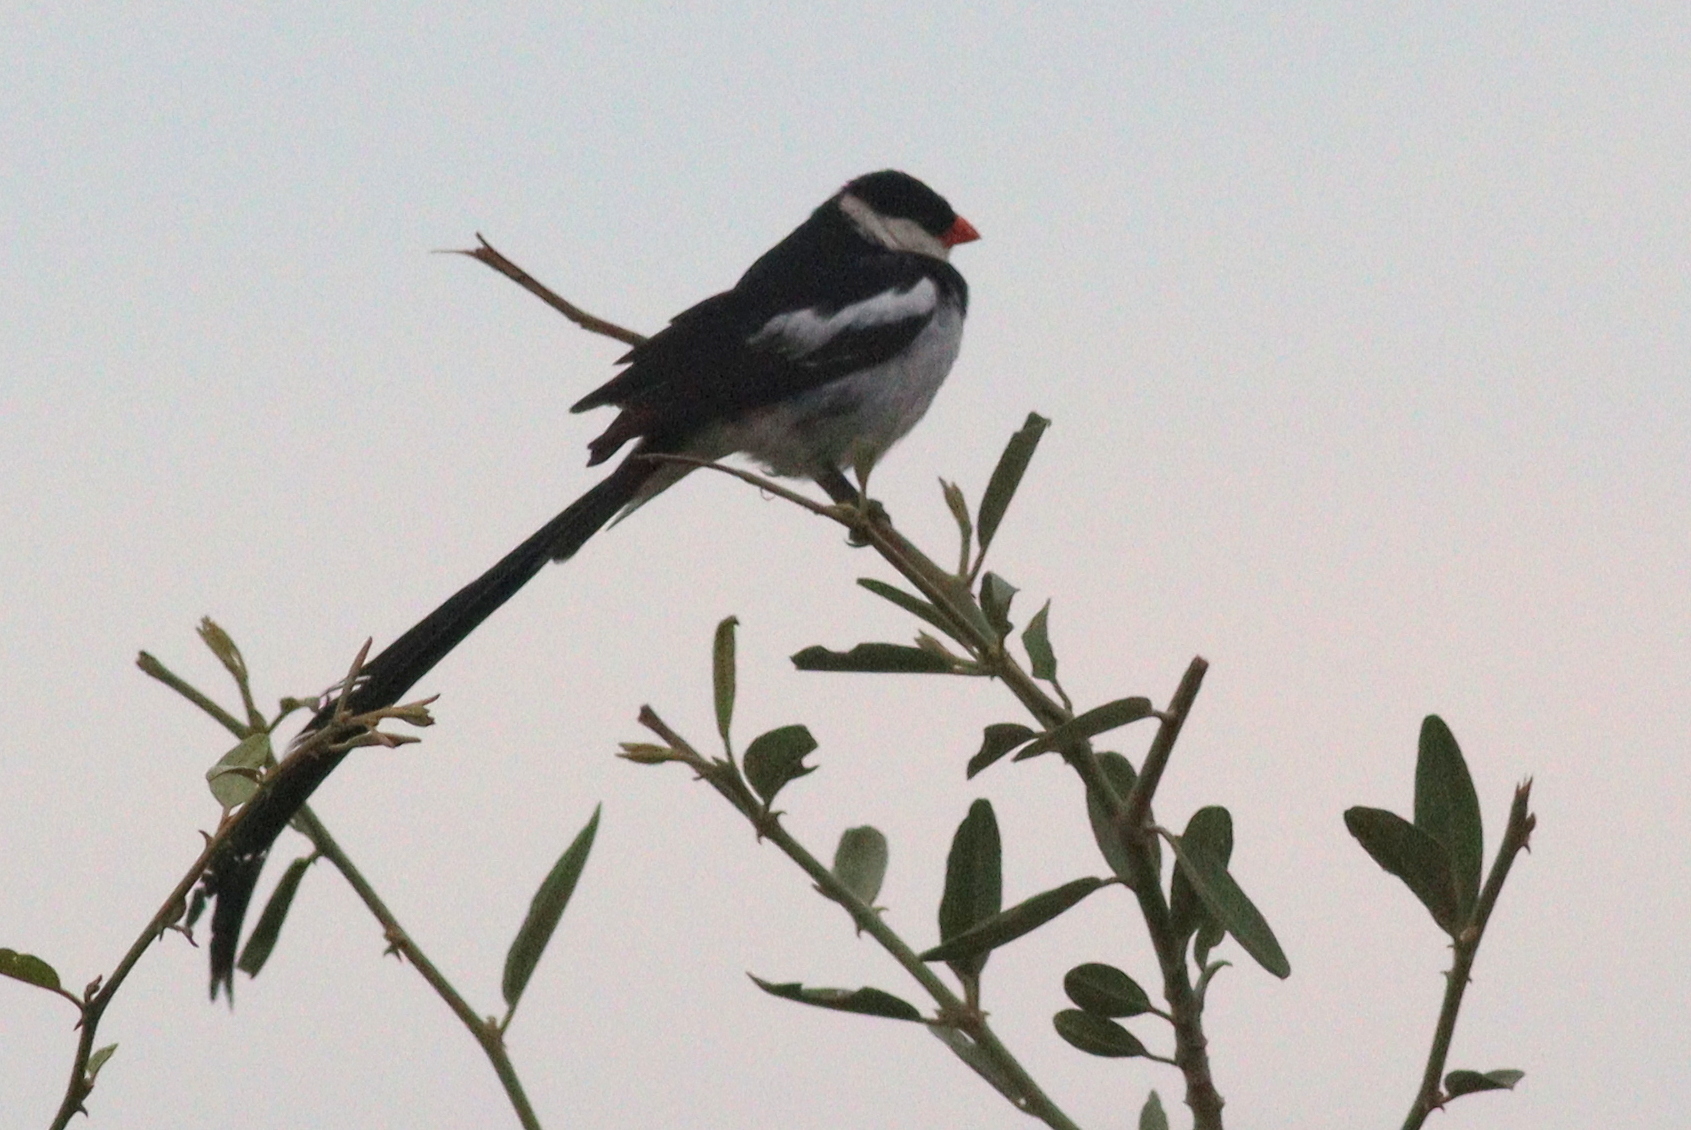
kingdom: Animalia
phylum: Chordata
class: Aves
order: Passeriformes
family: Viduidae
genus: Vidua
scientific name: Vidua macroura
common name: Pin-tailed whydah
